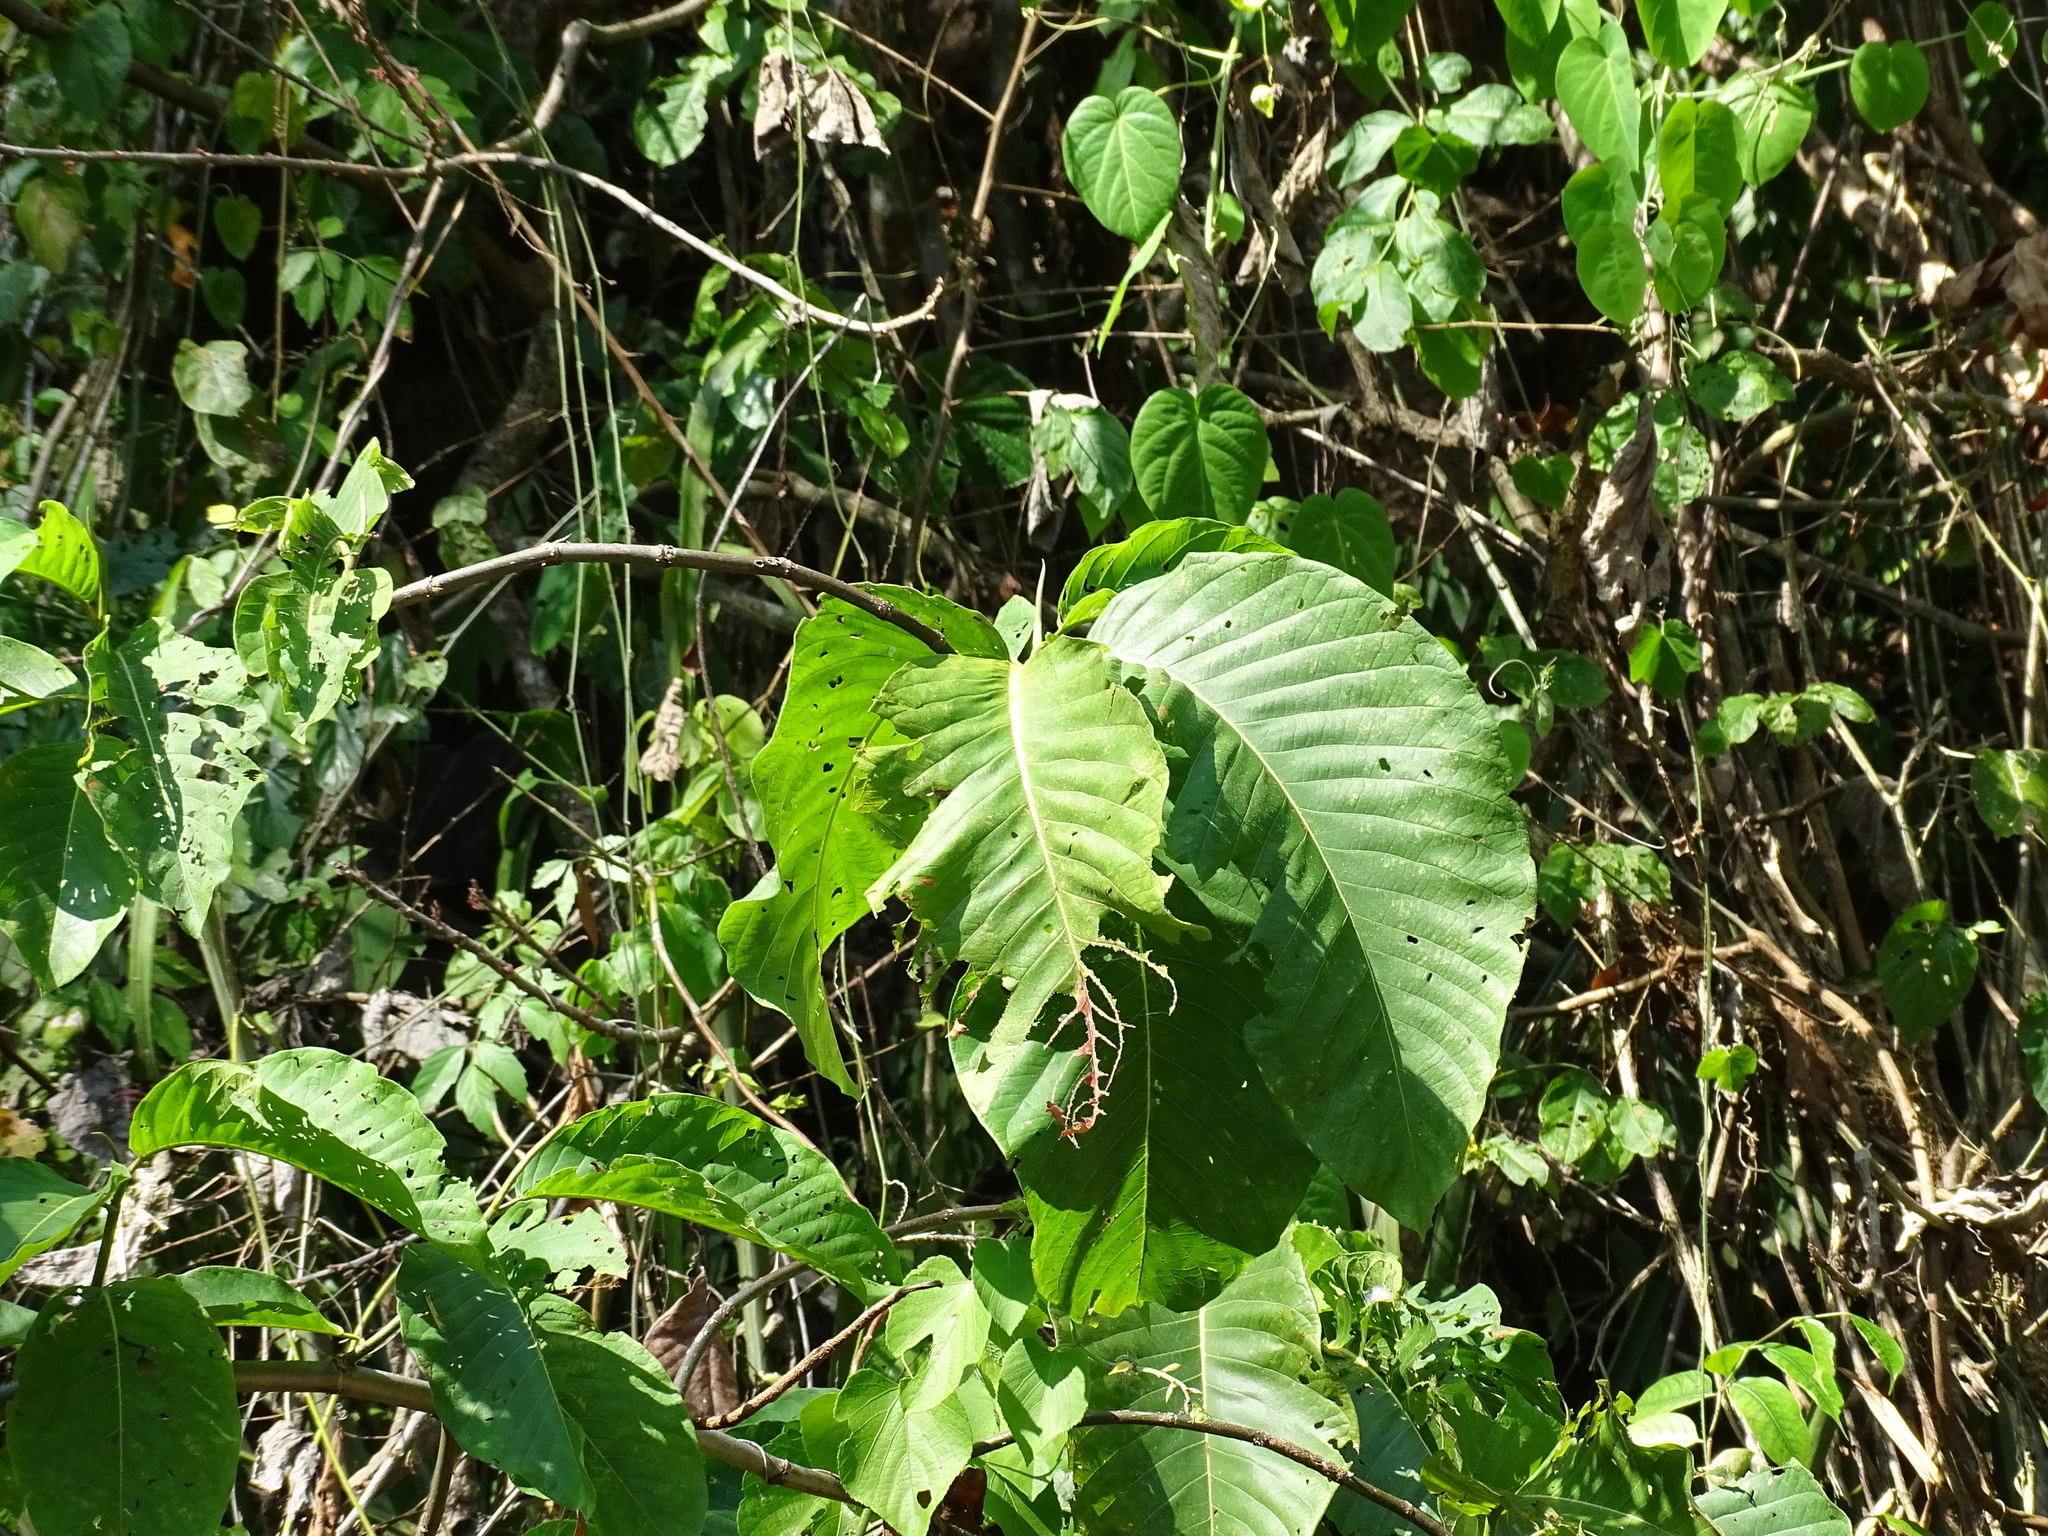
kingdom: Plantae
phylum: Tracheophyta
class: Magnoliopsida
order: Caryophyllales
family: Polygonaceae
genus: Triplaris
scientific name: Triplaris melaenodendron
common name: Long john
